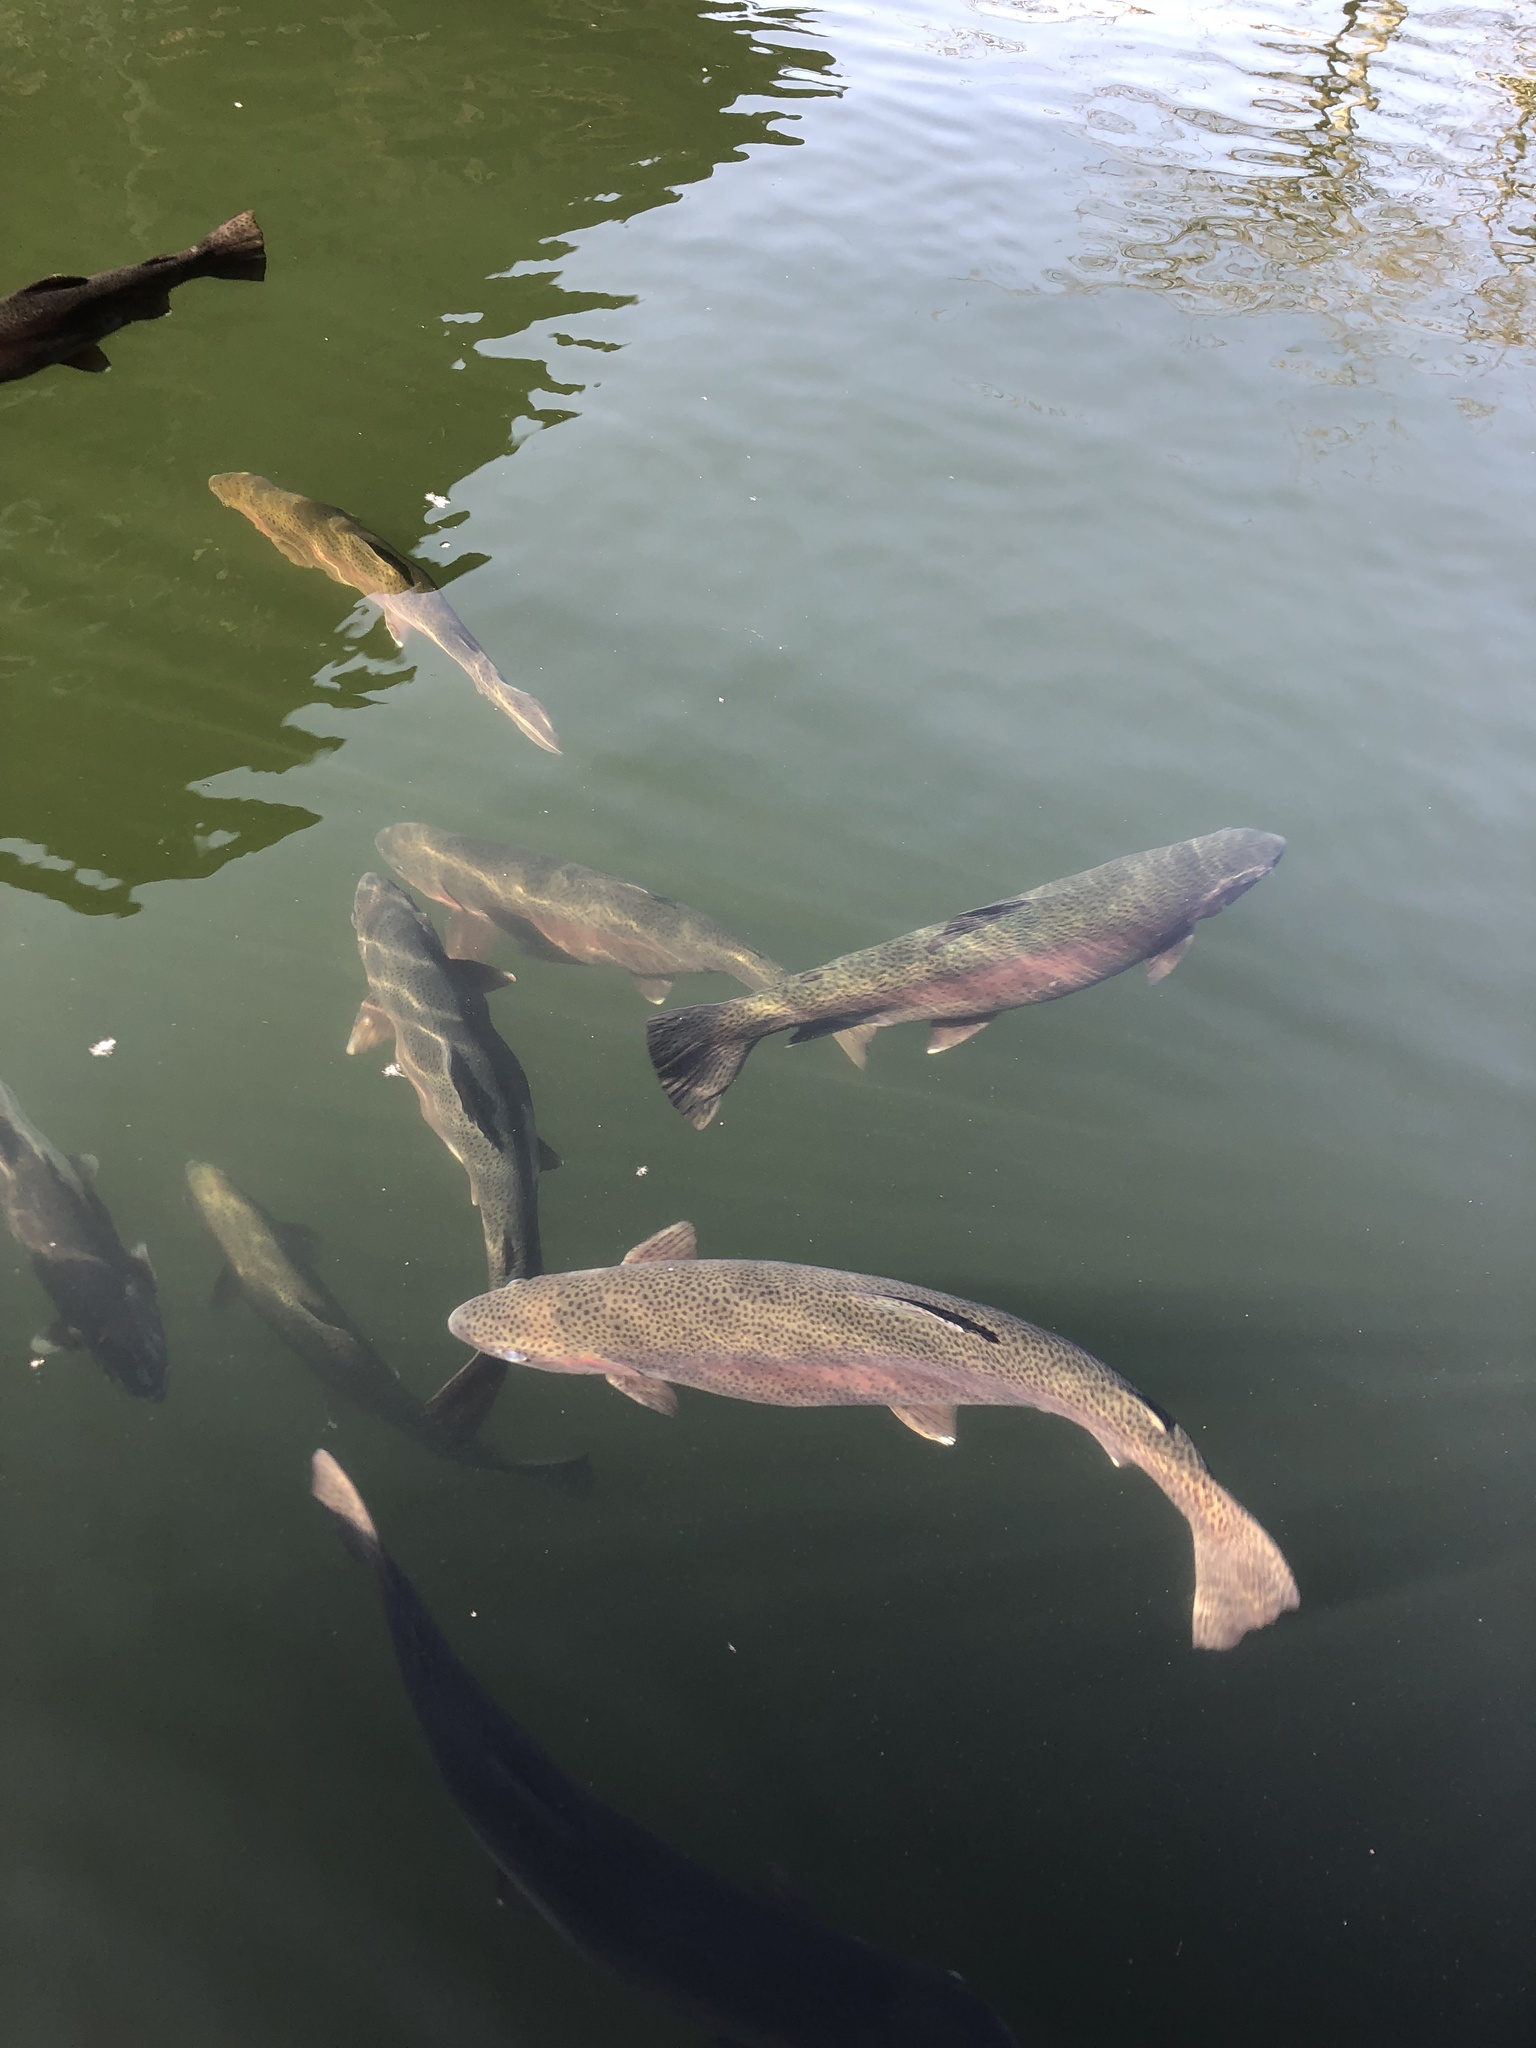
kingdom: Animalia
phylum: Chordata
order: Salmoniformes
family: Salmonidae
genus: Oncorhynchus
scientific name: Oncorhynchus mykiss
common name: Rainbow trout
